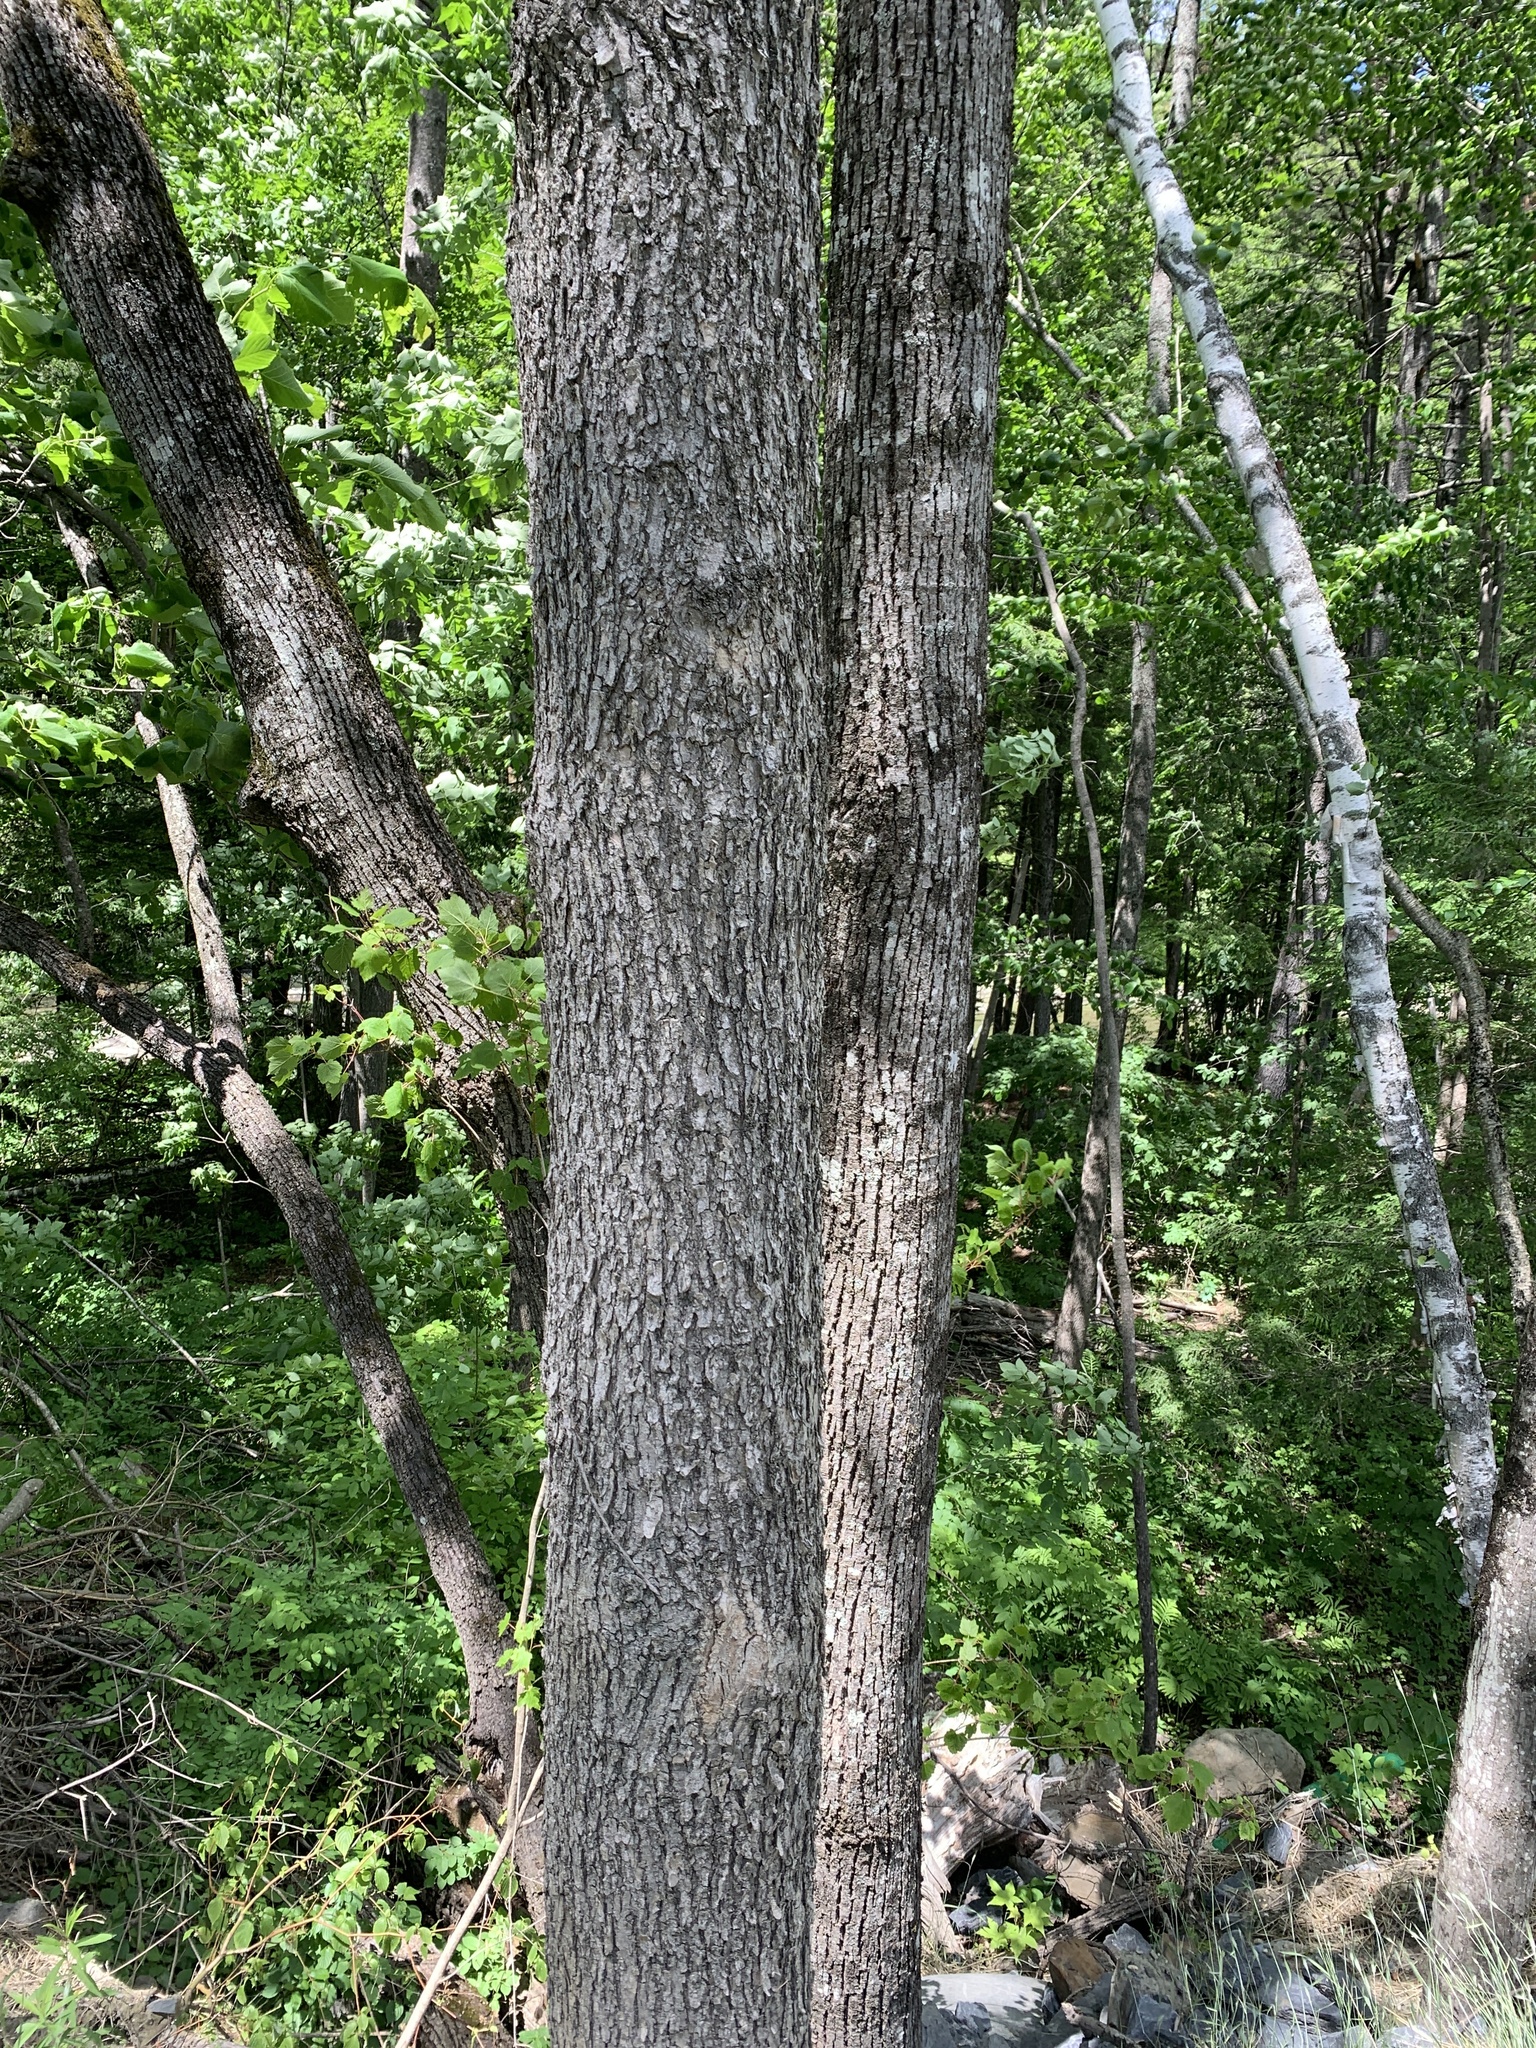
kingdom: Plantae
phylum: Tracheophyta
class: Magnoliopsida
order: Lamiales
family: Oleaceae
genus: Fraxinus
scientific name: Fraxinus nigra
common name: Black ash
